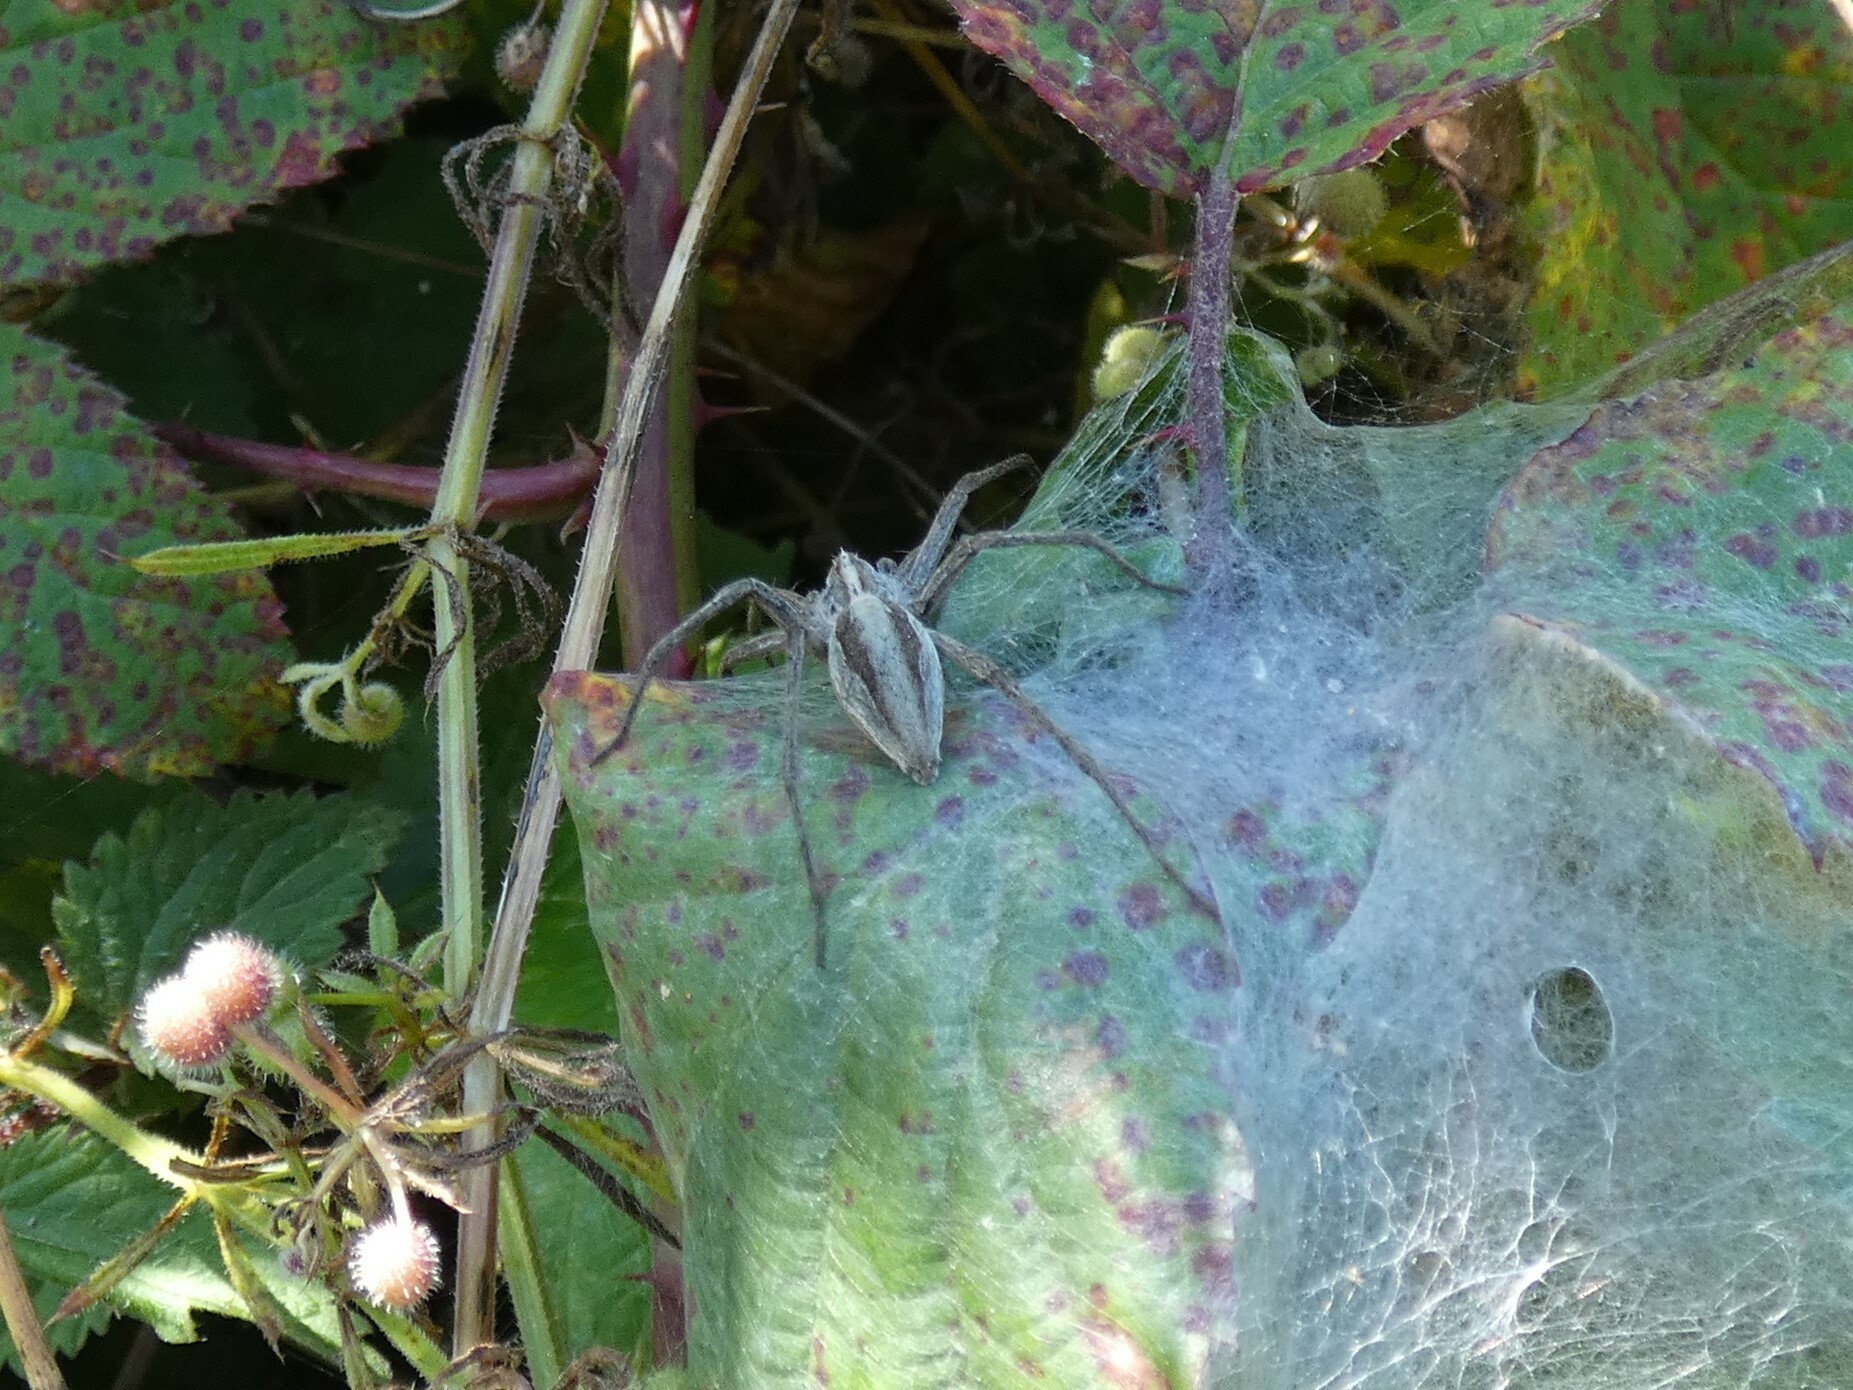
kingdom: Animalia
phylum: Arthropoda
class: Arachnida
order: Araneae
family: Pisauridae
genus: Pisaura
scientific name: Pisaura mirabilis
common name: Tent spider
